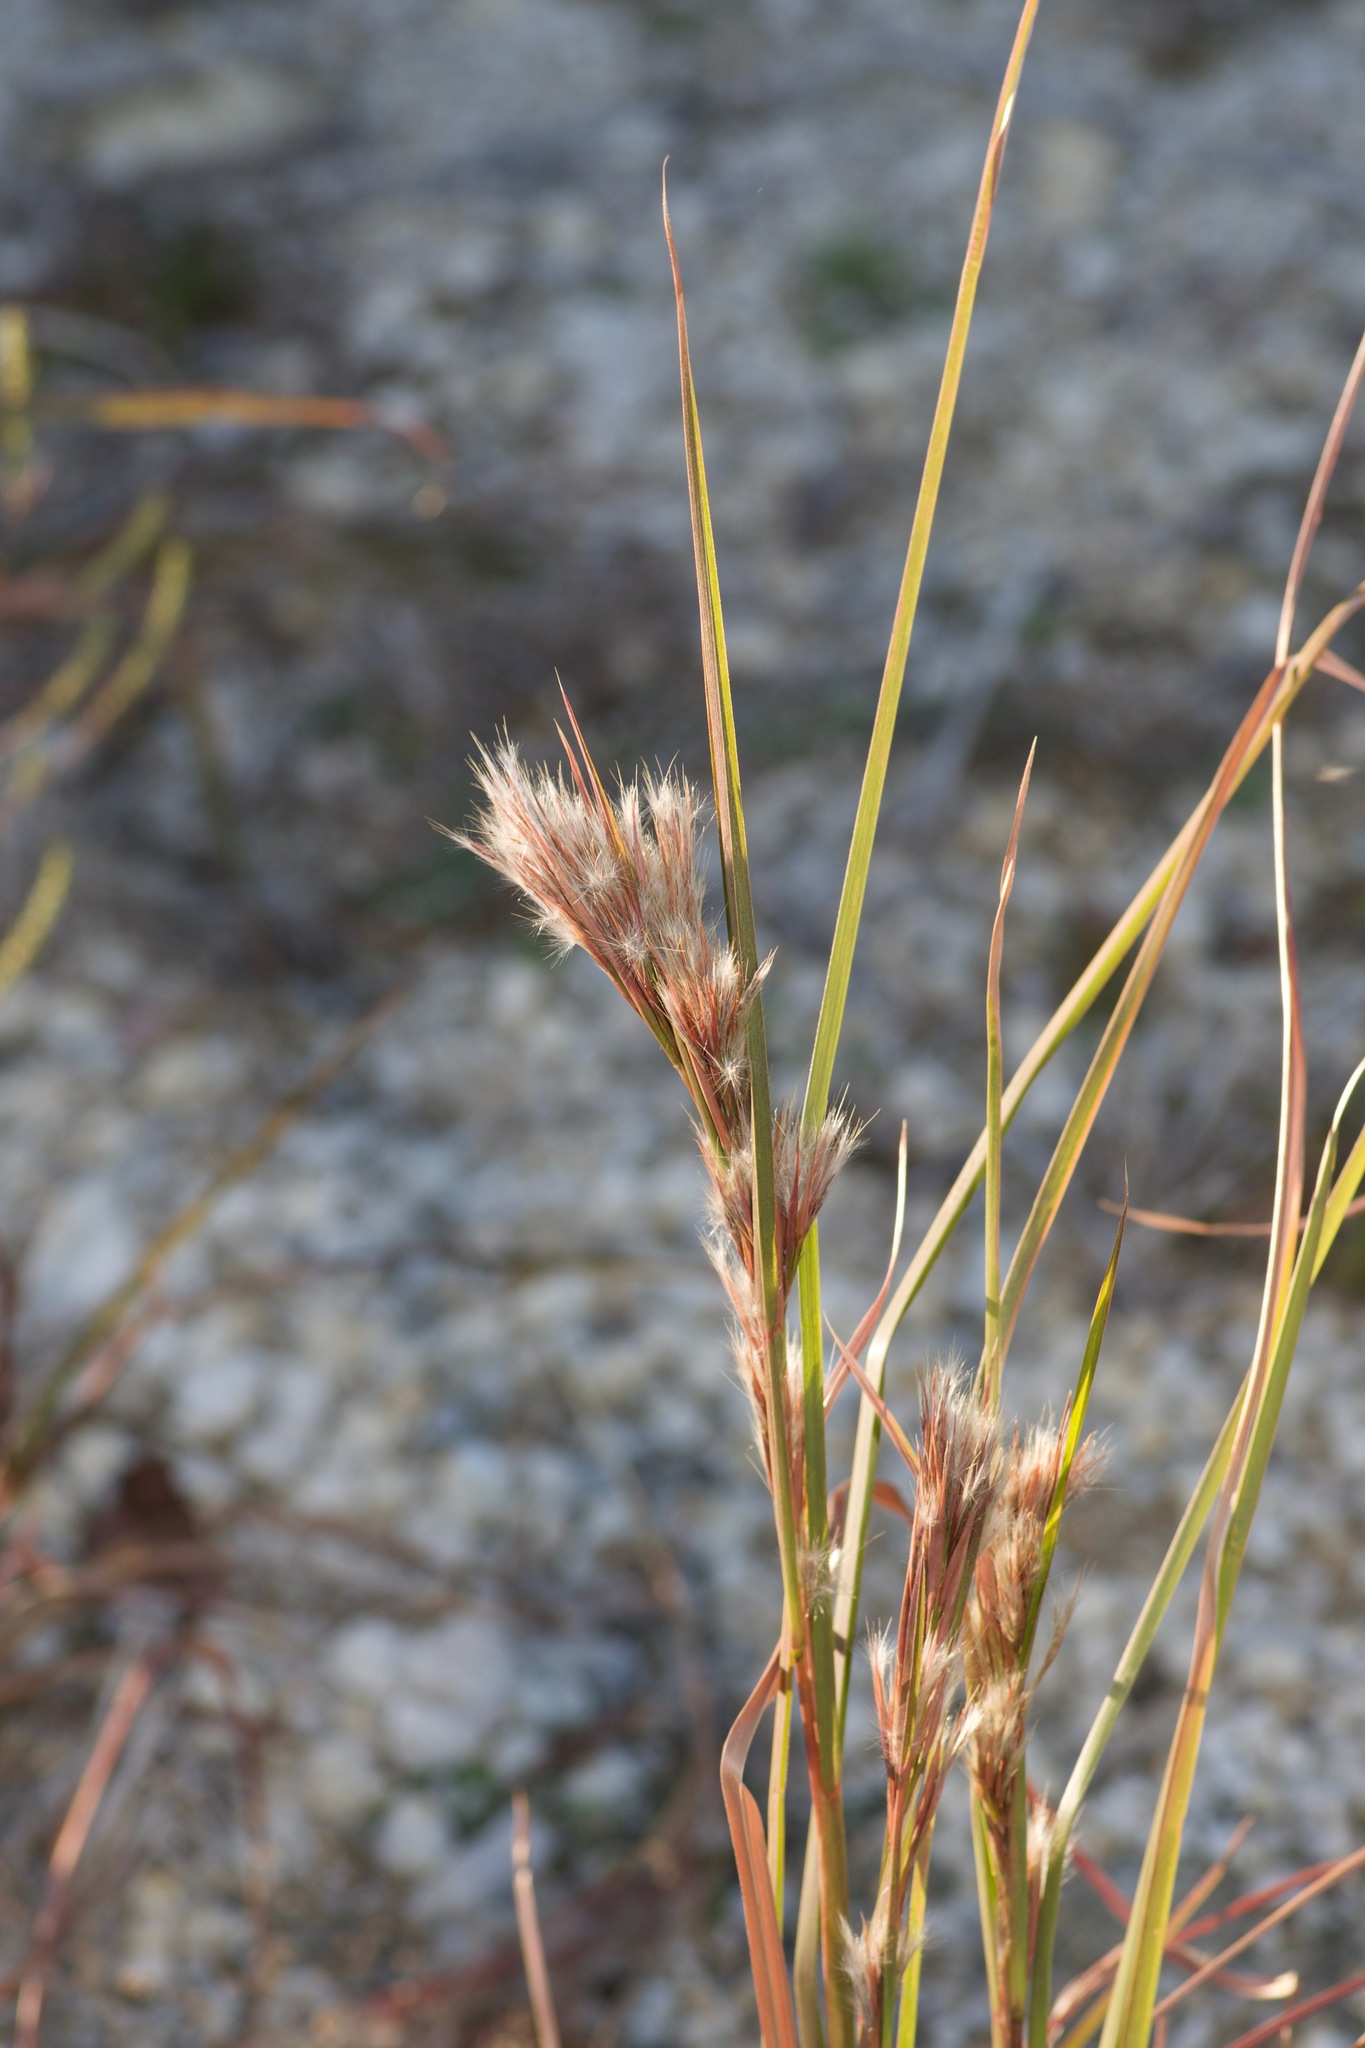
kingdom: Plantae
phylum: Tracheophyta
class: Liliopsida
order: Poales
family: Poaceae
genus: Andropogon
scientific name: Andropogon tenuispatheus
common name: Bushy bluestem
